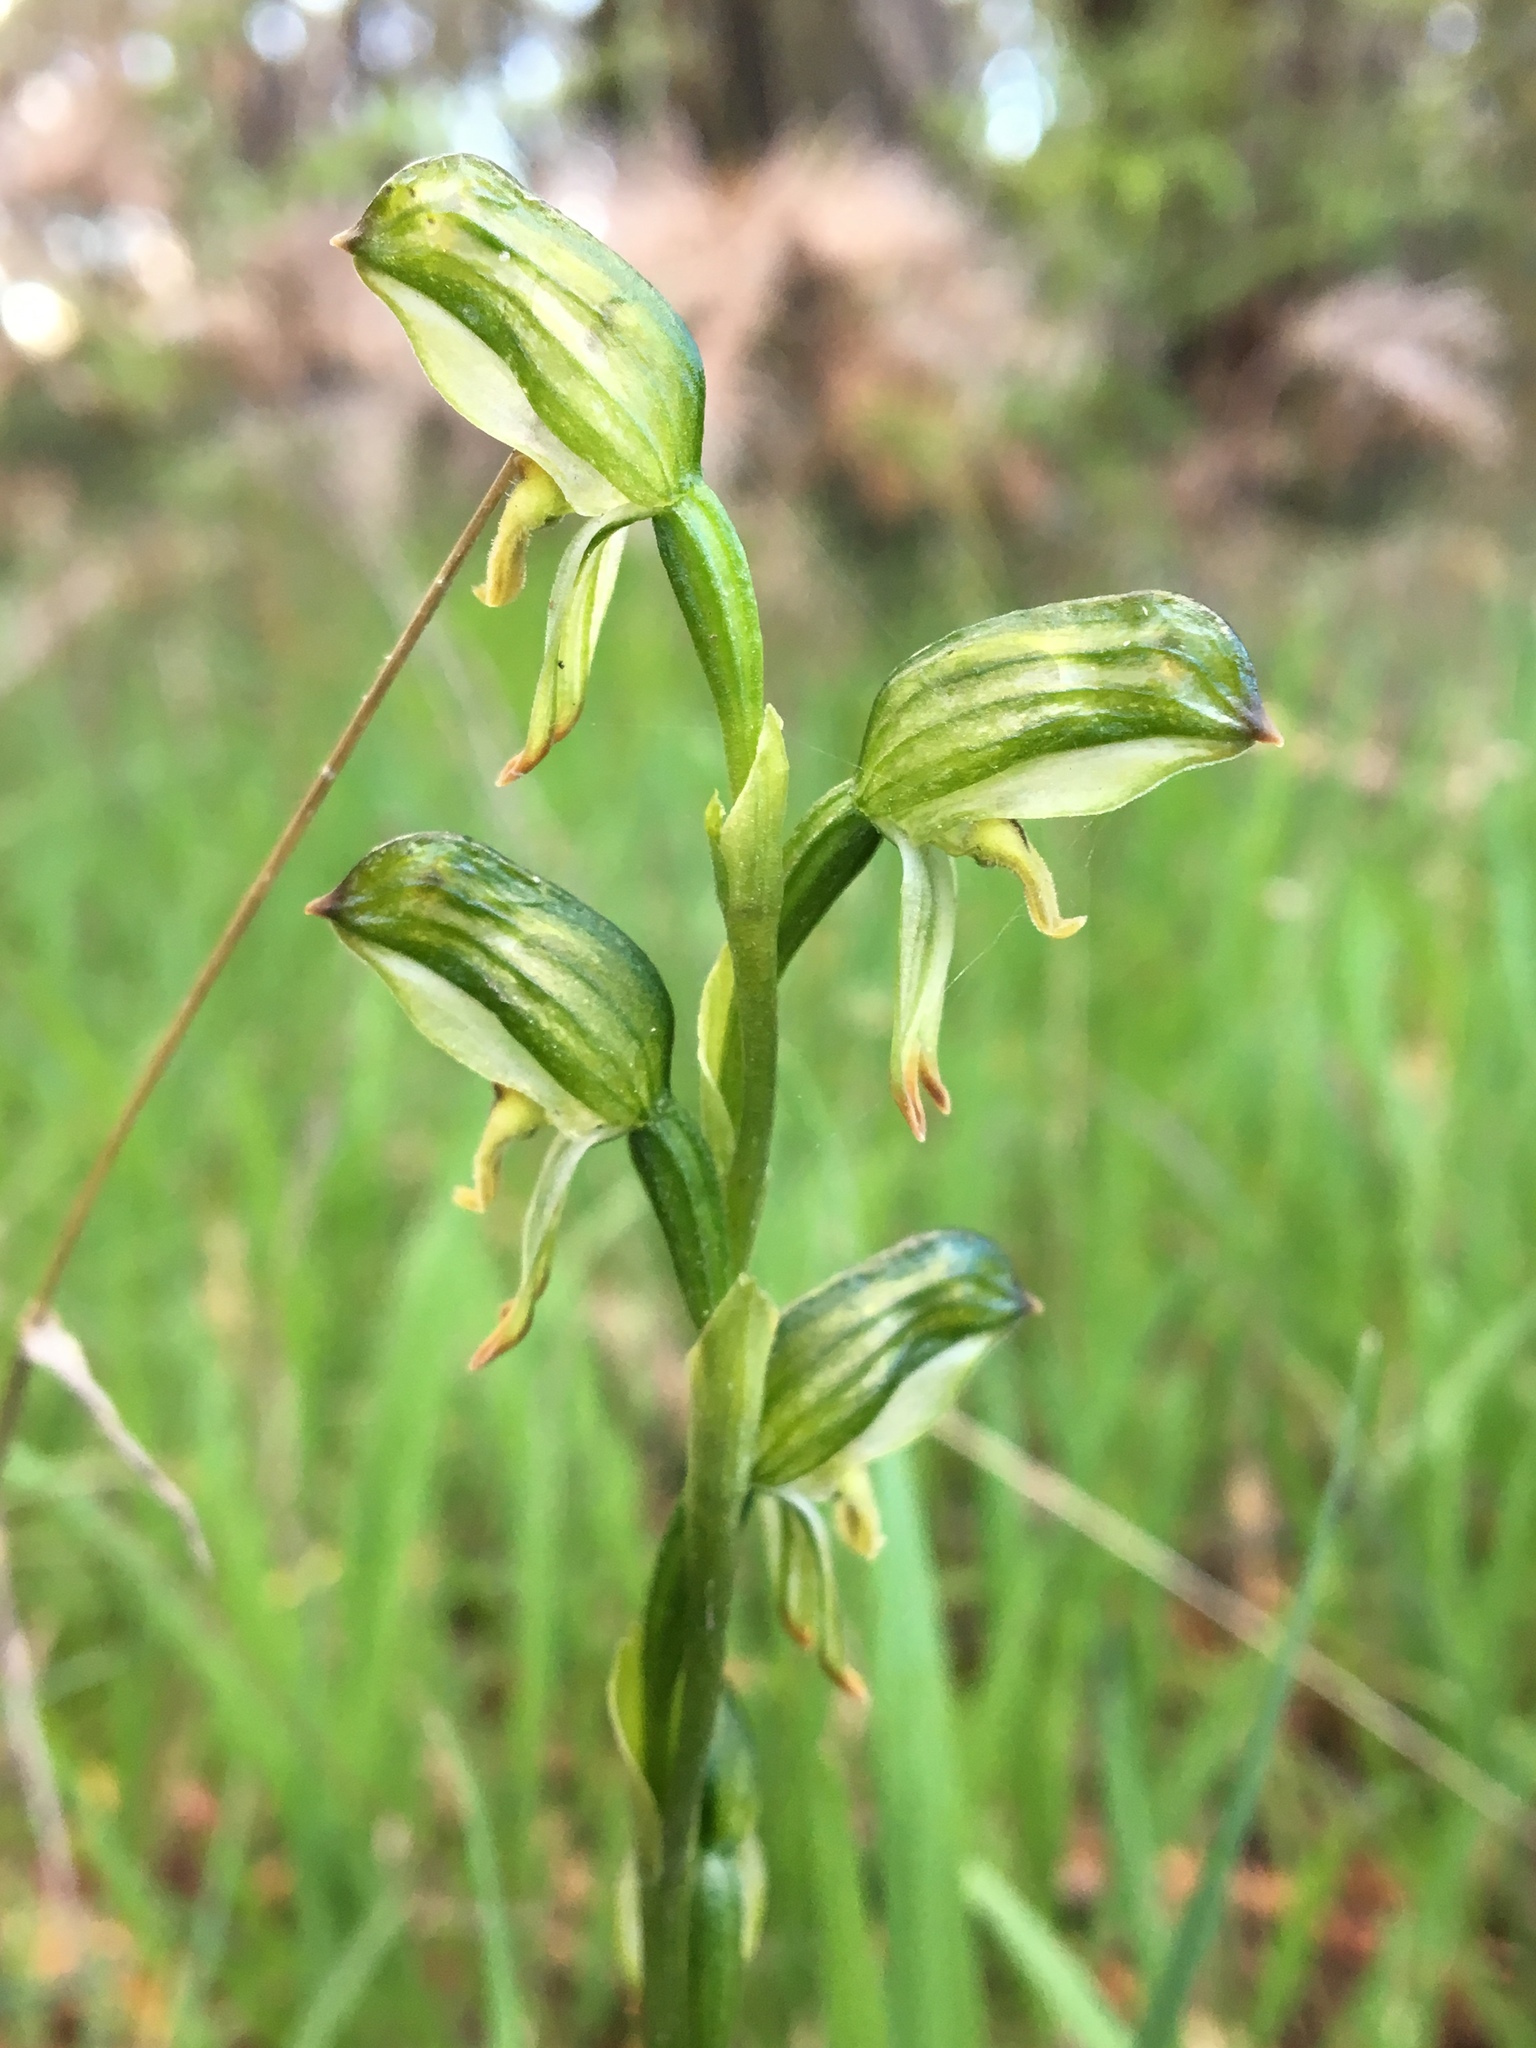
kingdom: Plantae
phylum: Tracheophyta
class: Liliopsida
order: Asparagales
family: Orchidaceae
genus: Pterostylis
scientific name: Pterostylis melagramma
